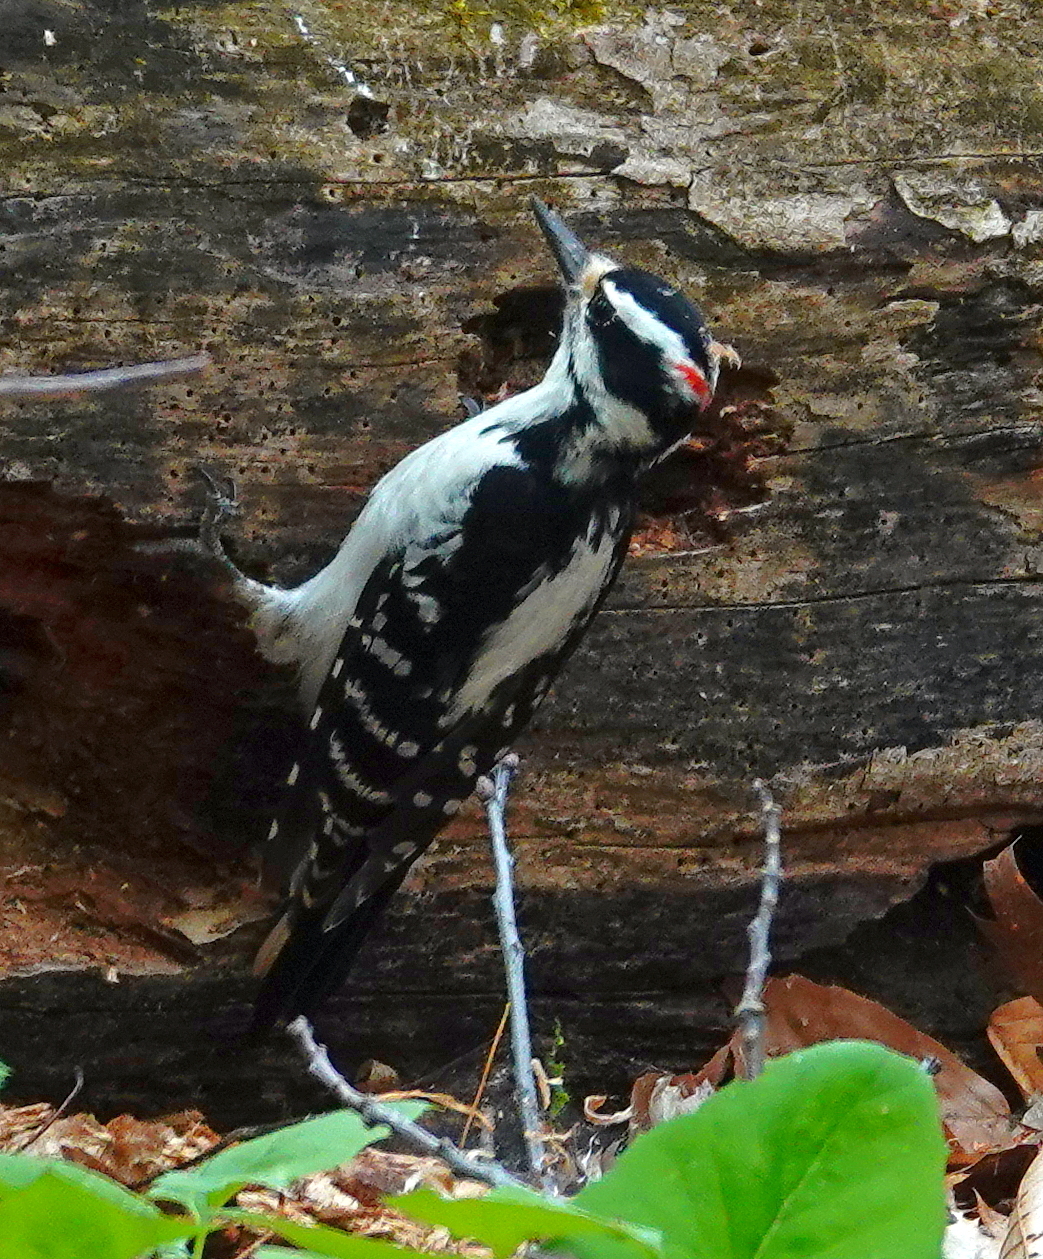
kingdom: Animalia
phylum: Chordata
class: Aves
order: Piciformes
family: Picidae
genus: Leuconotopicus
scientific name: Leuconotopicus villosus
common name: Hairy woodpecker
